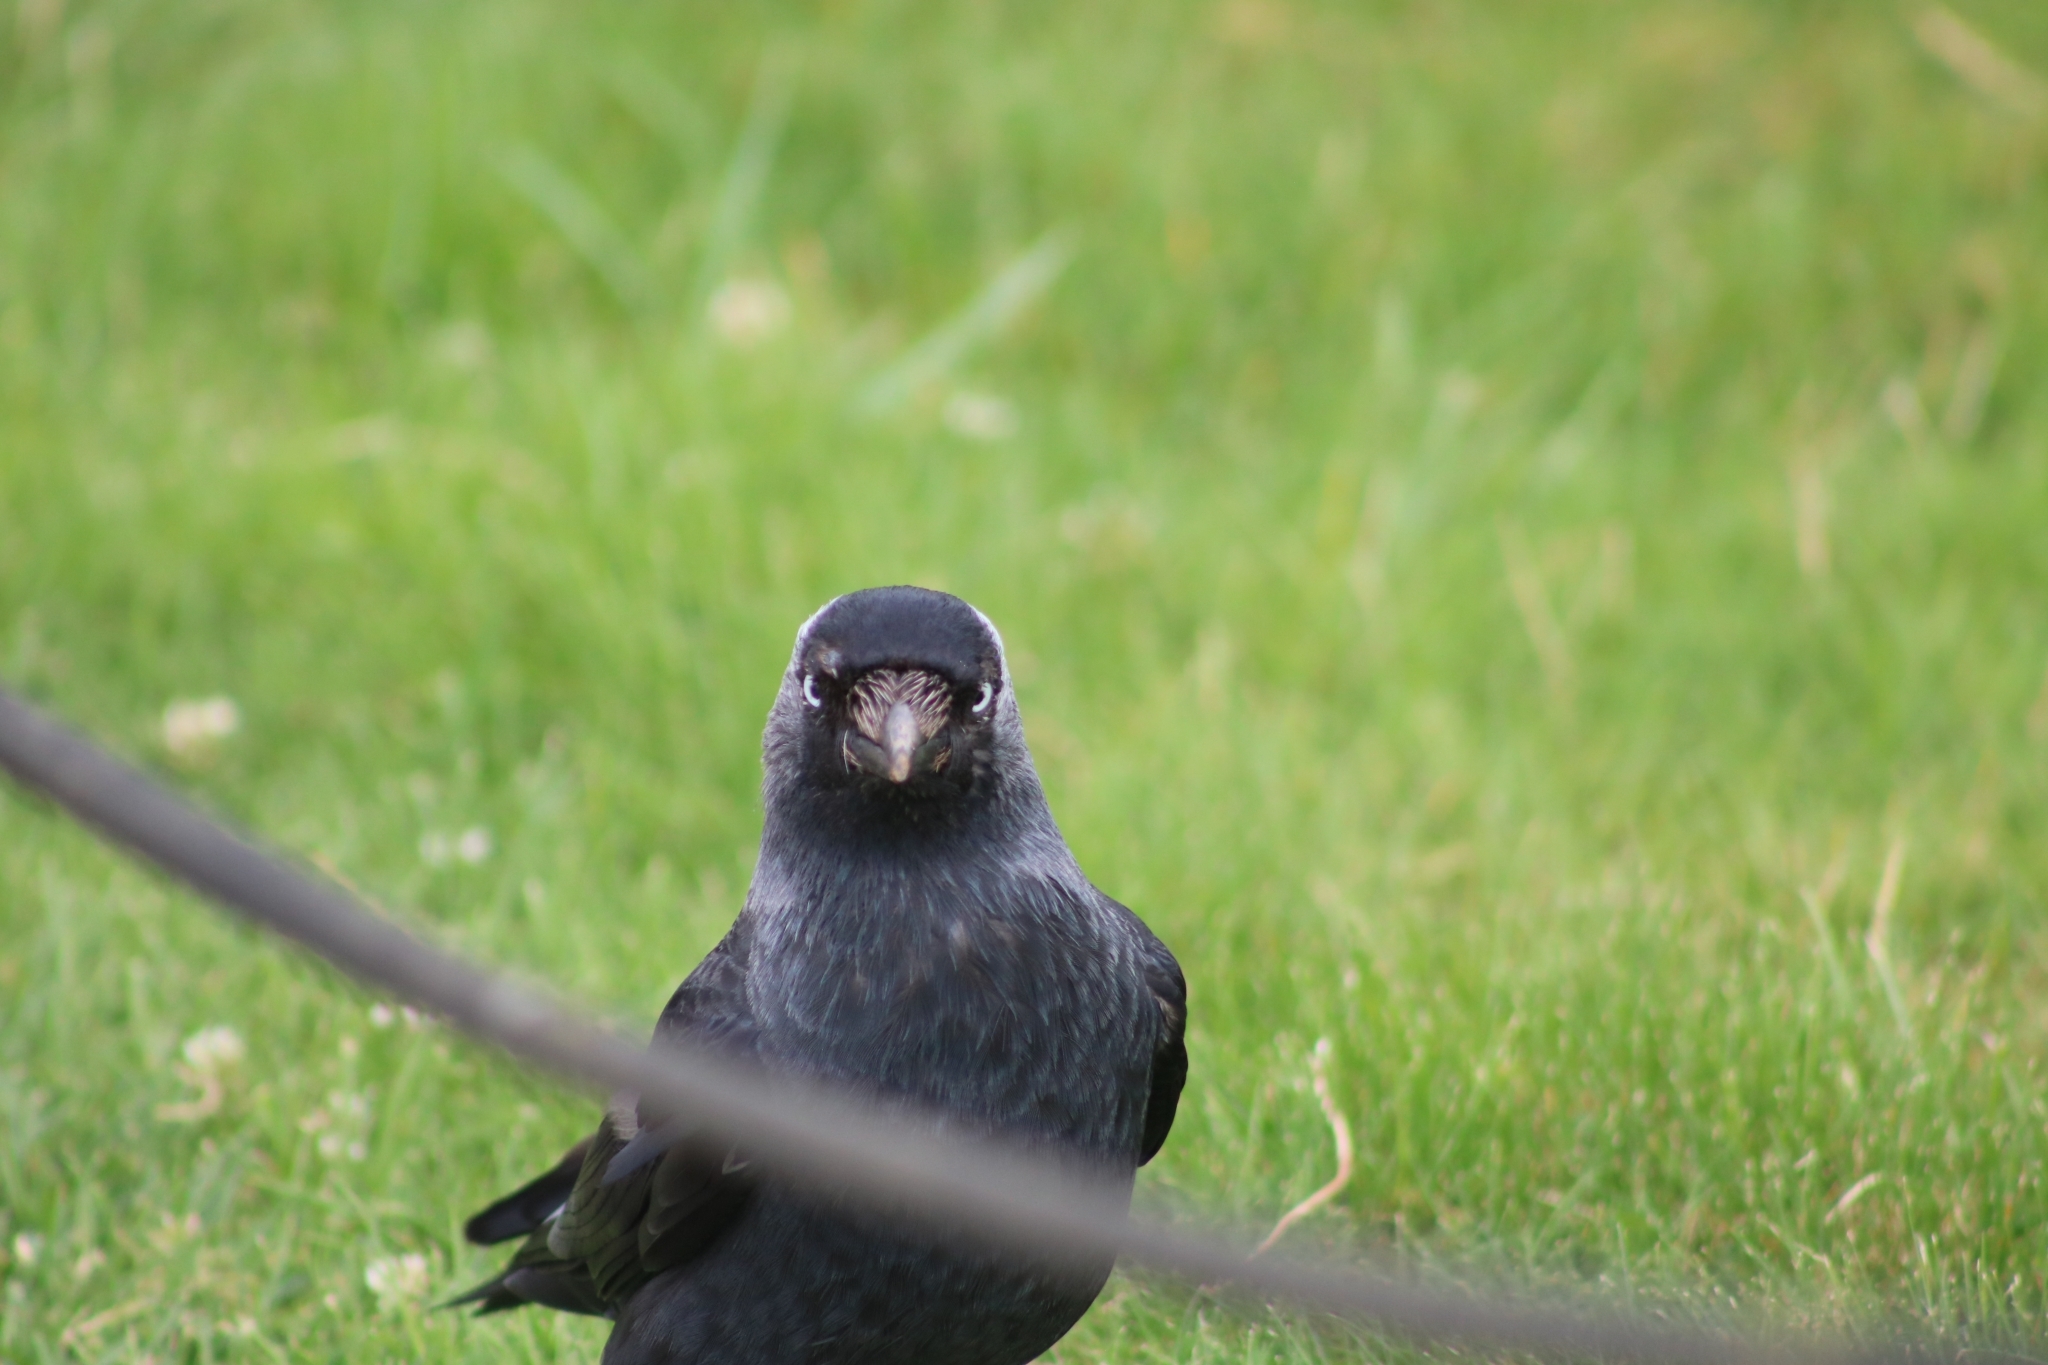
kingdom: Animalia
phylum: Chordata
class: Aves
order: Passeriformes
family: Corvidae
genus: Coloeus
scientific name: Coloeus monedula
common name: Western jackdaw
